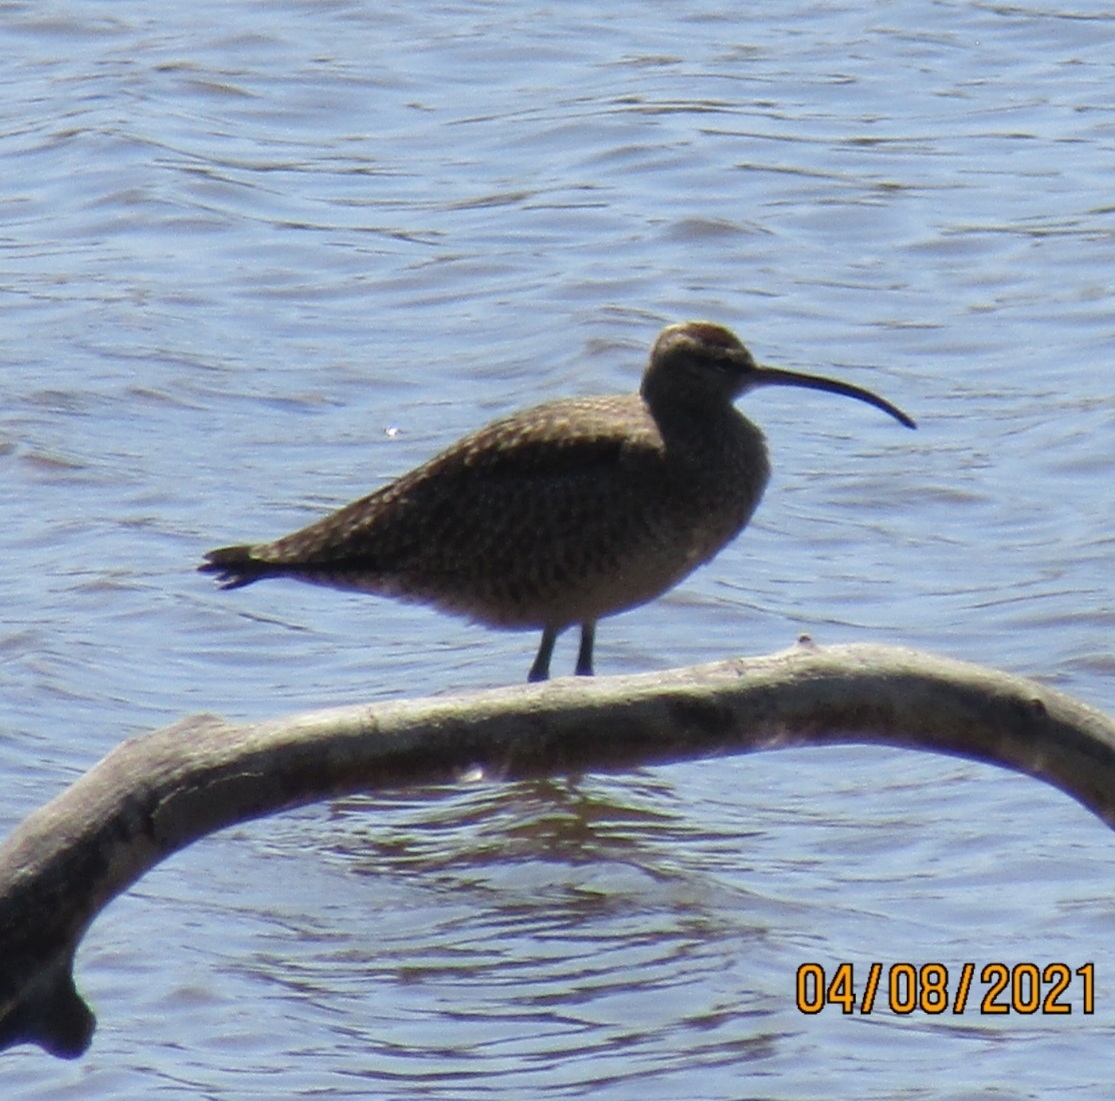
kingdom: Animalia
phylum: Chordata
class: Aves
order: Charadriiformes
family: Scolopacidae
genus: Numenius
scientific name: Numenius phaeopus
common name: Whimbrel
